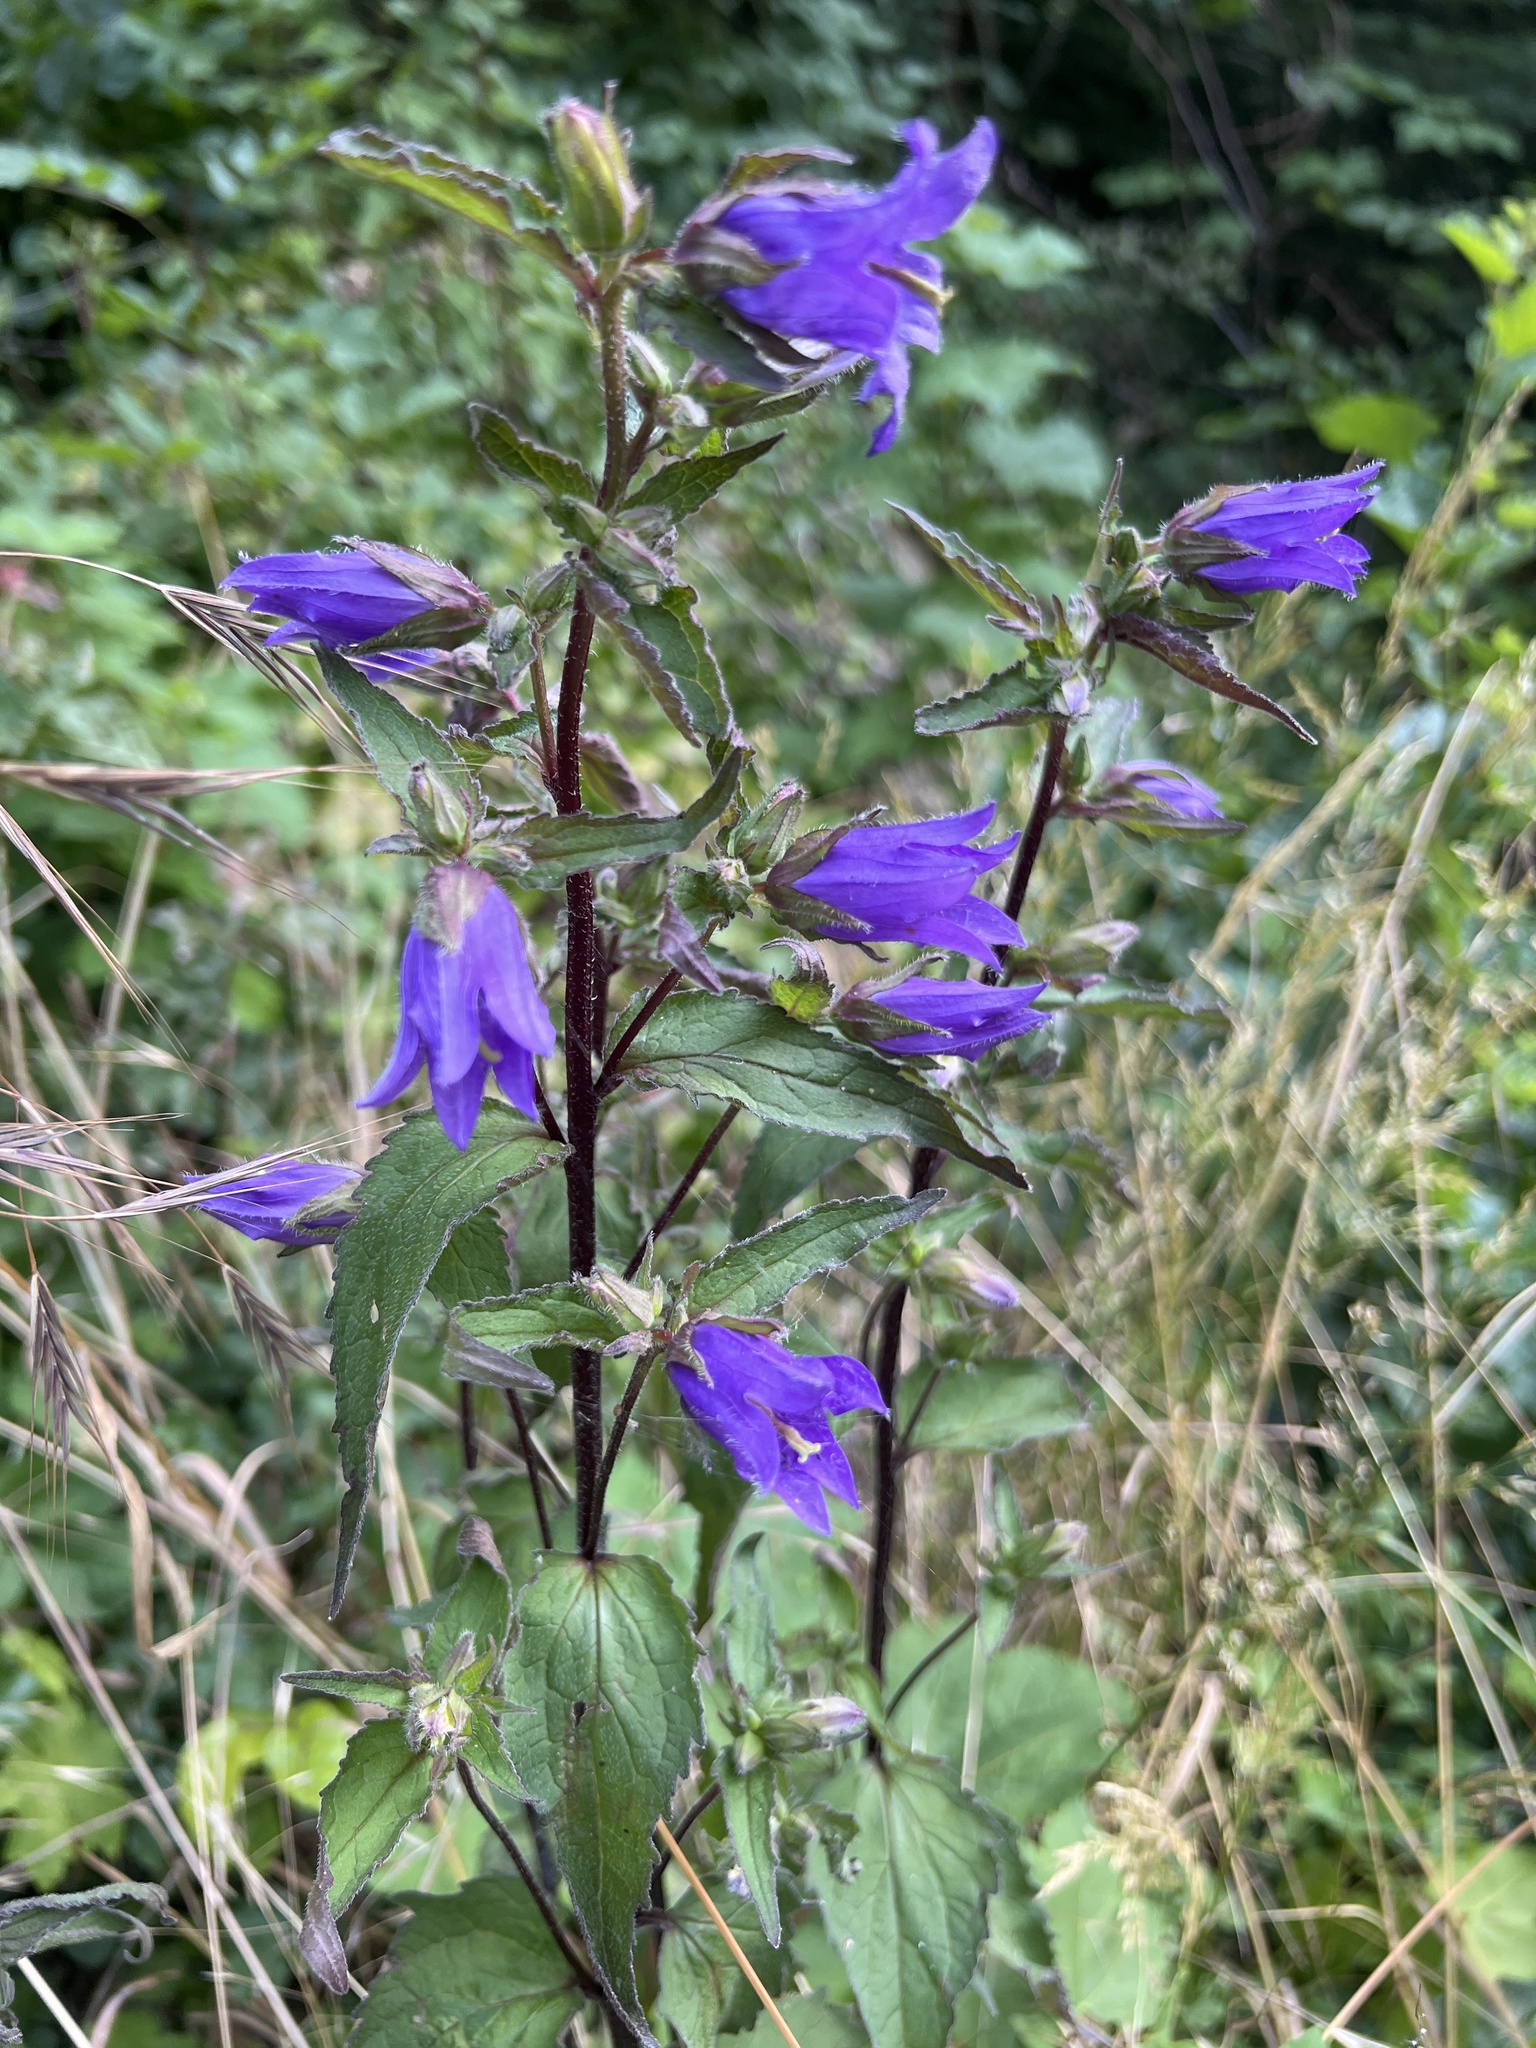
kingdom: Plantae
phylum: Tracheophyta
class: Magnoliopsida
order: Asterales
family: Campanulaceae
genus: Campanula
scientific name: Campanula trachelium
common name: Nettle-leaved bellflower
